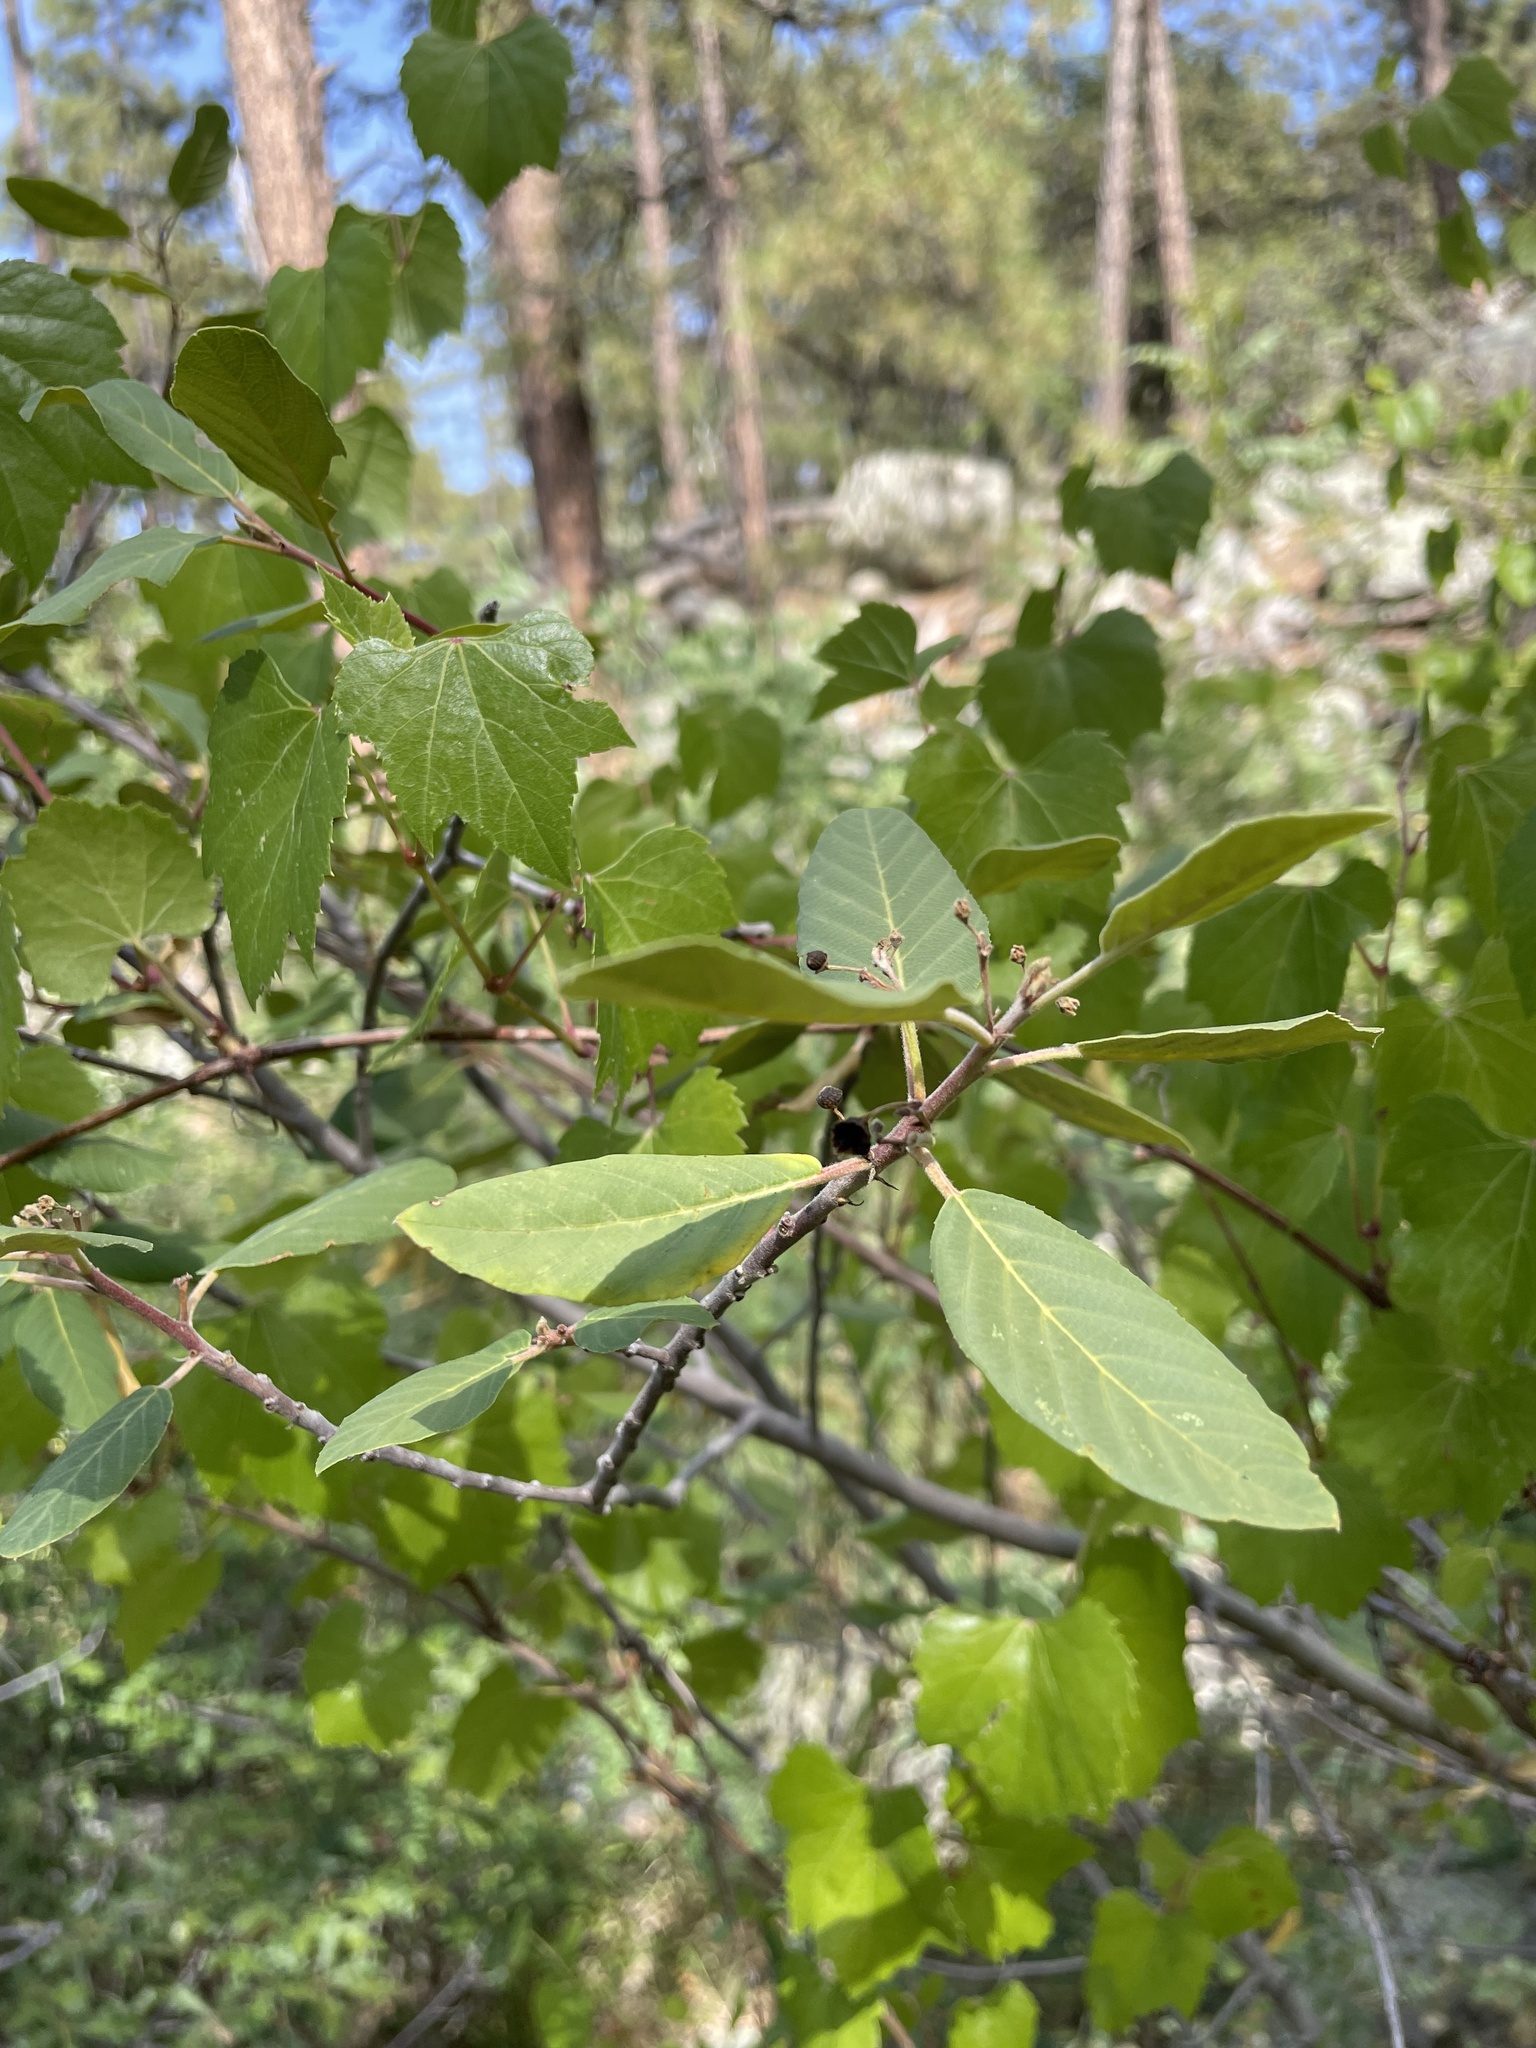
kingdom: Plantae
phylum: Tracheophyta
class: Magnoliopsida
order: Vitales
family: Vitaceae
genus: Vitis
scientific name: Vitis arizonica
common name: Canyon grape
